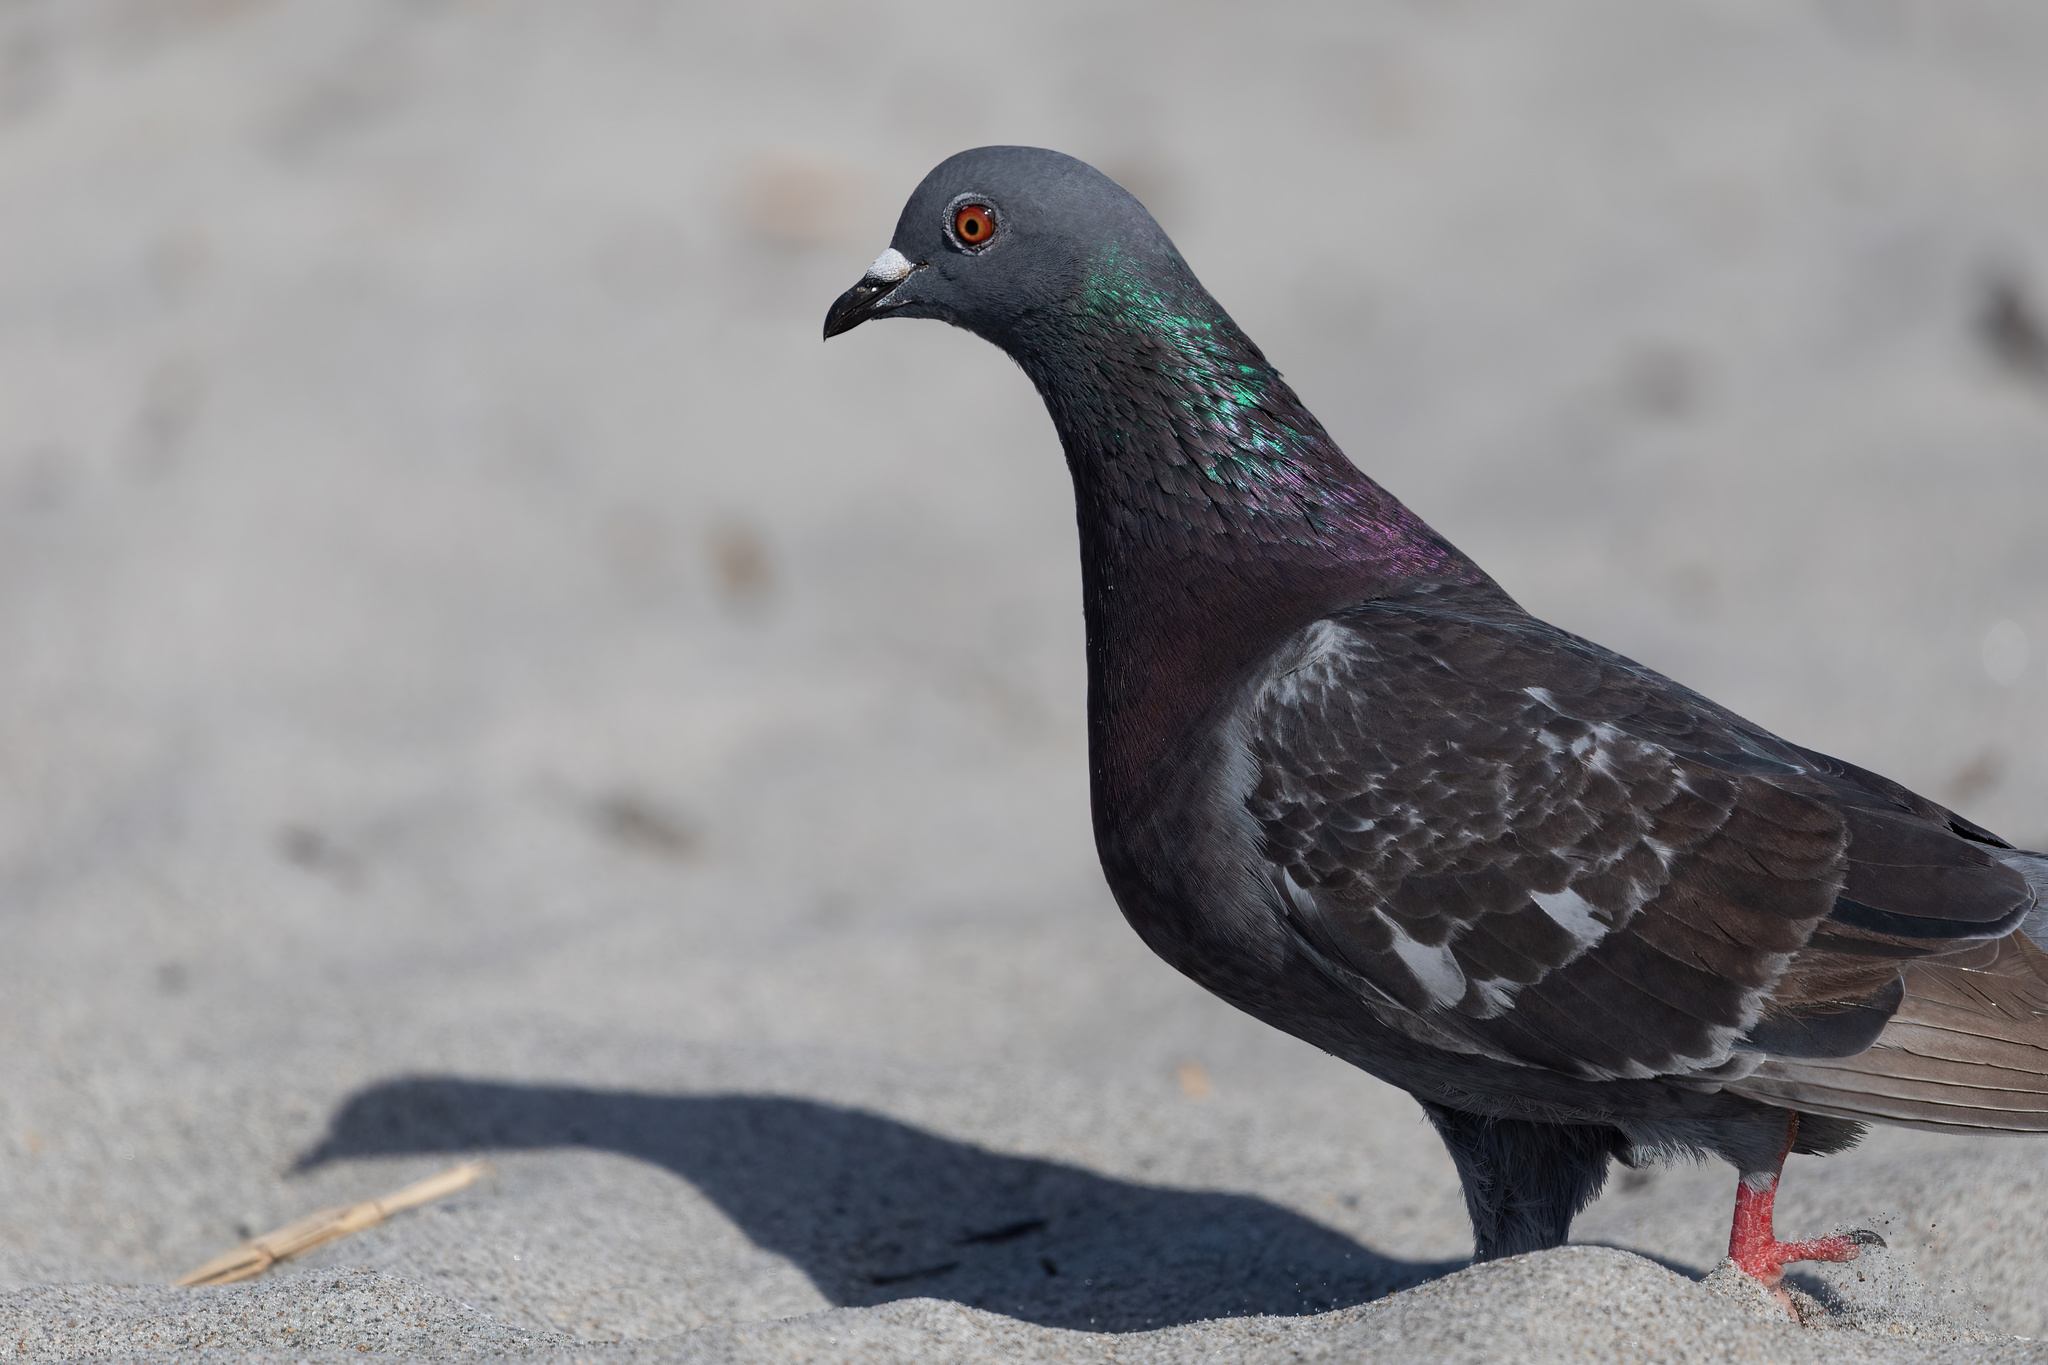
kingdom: Animalia
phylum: Chordata
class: Aves
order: Columbiformes
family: Columbidae
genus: Columba
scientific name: Columba livia
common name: Rock pigeon
